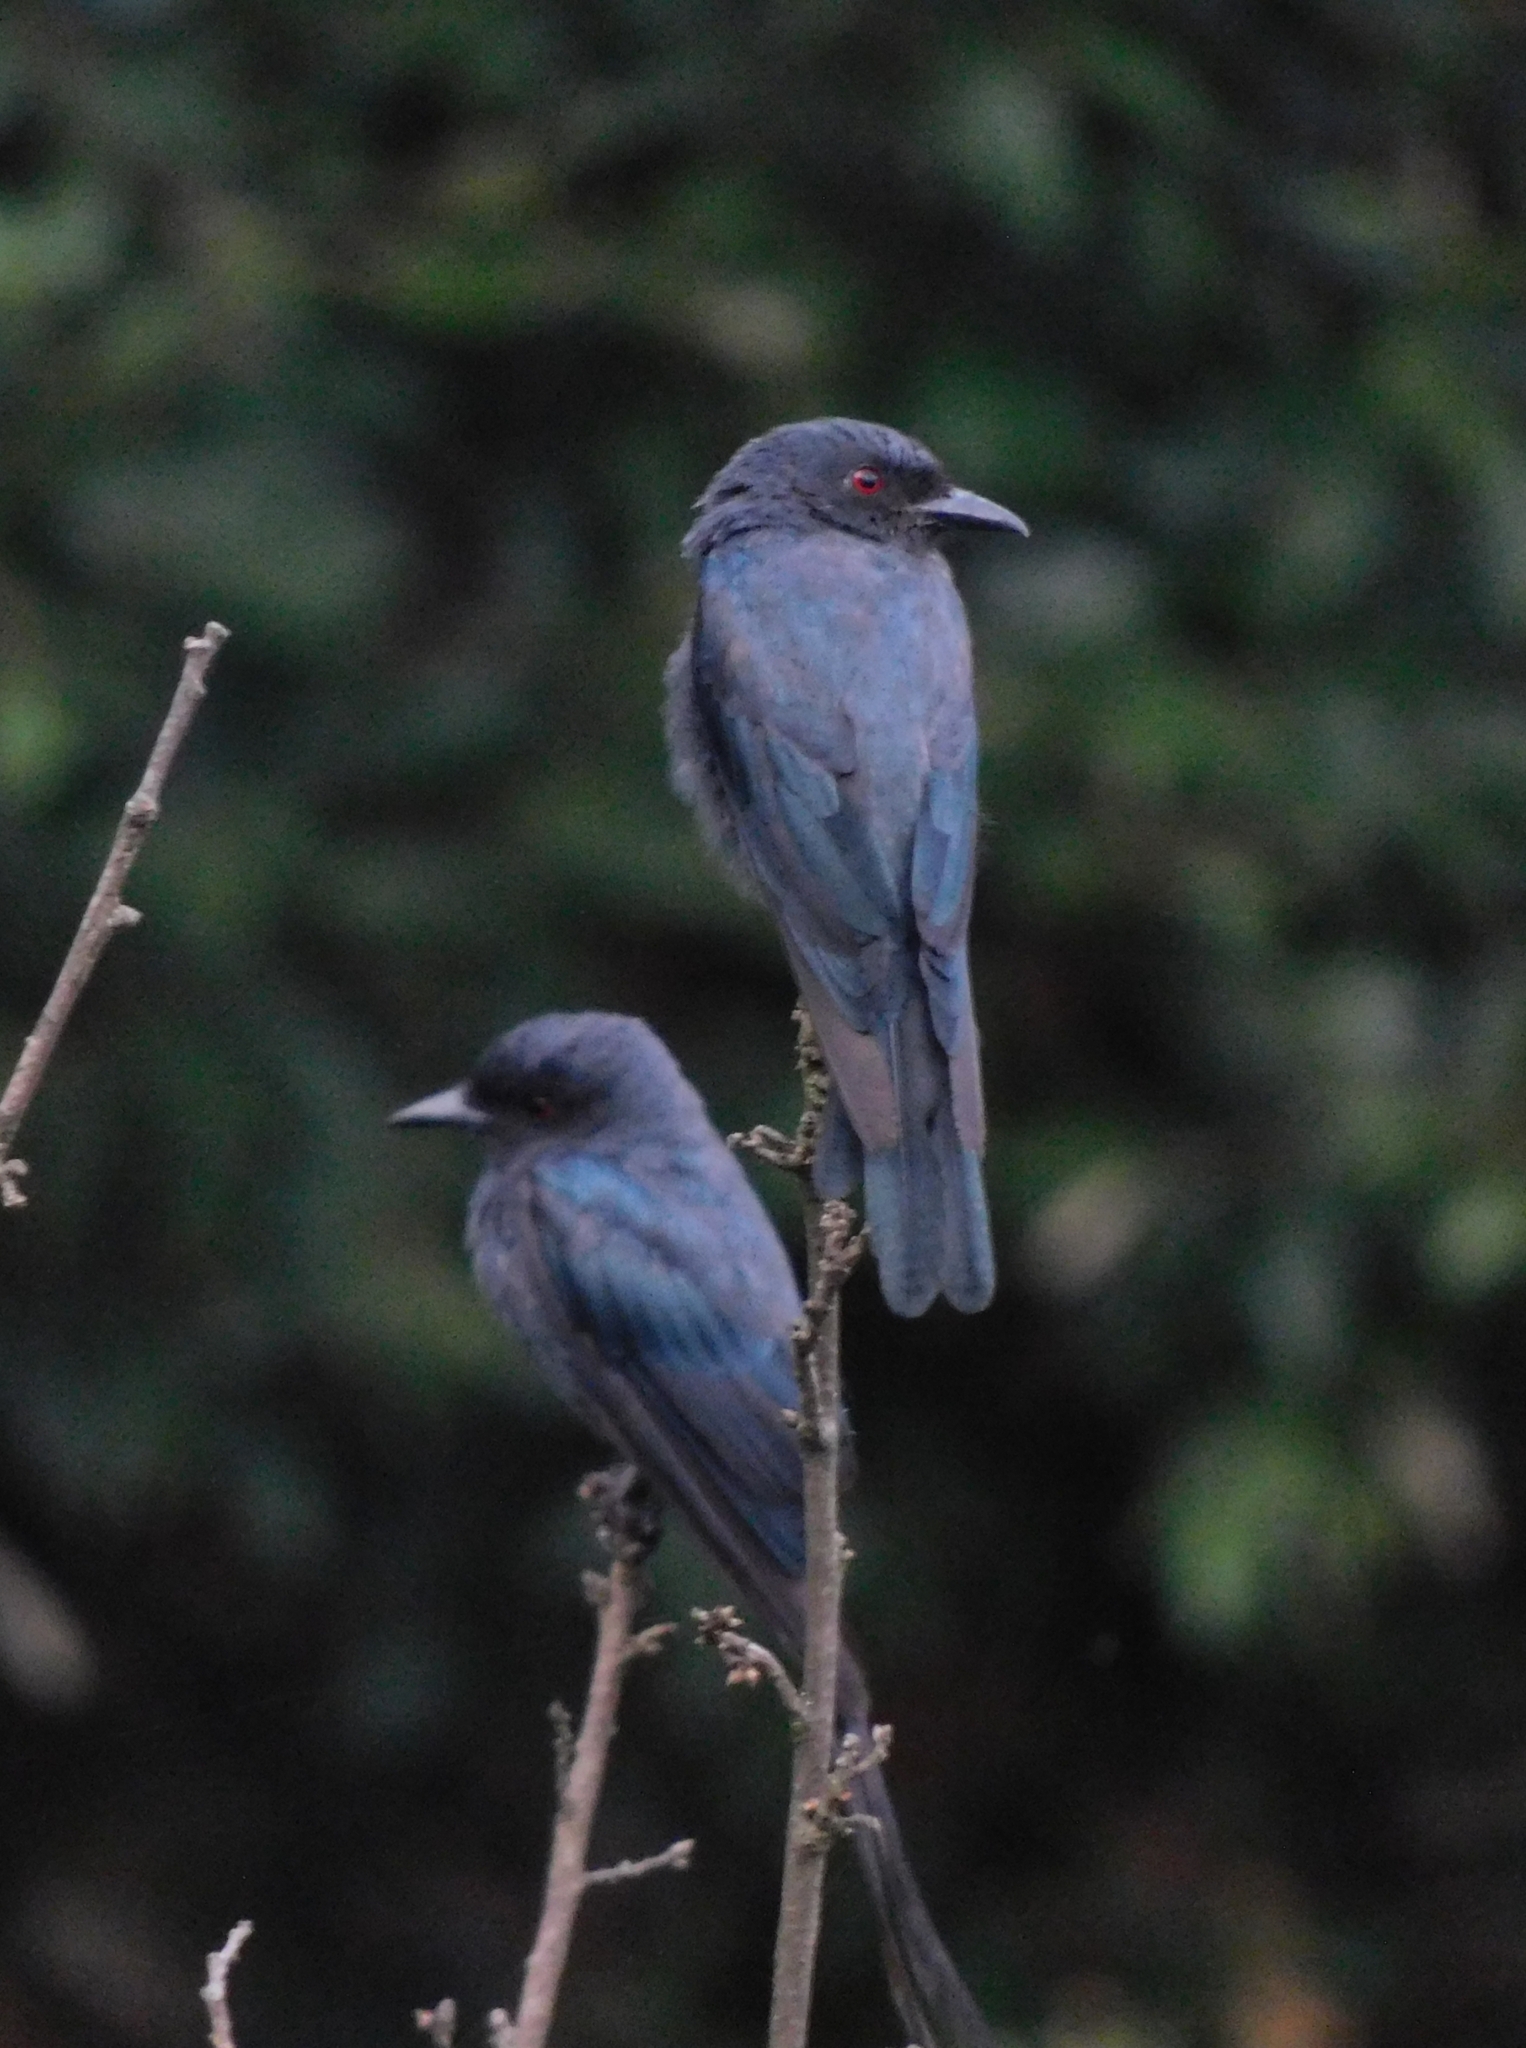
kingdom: Animalia
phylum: Chordata
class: Aves
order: Passeriformes
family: Dicruridae
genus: Dicrurus
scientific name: Dicrurus leucophaeus
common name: Ashy drongo
